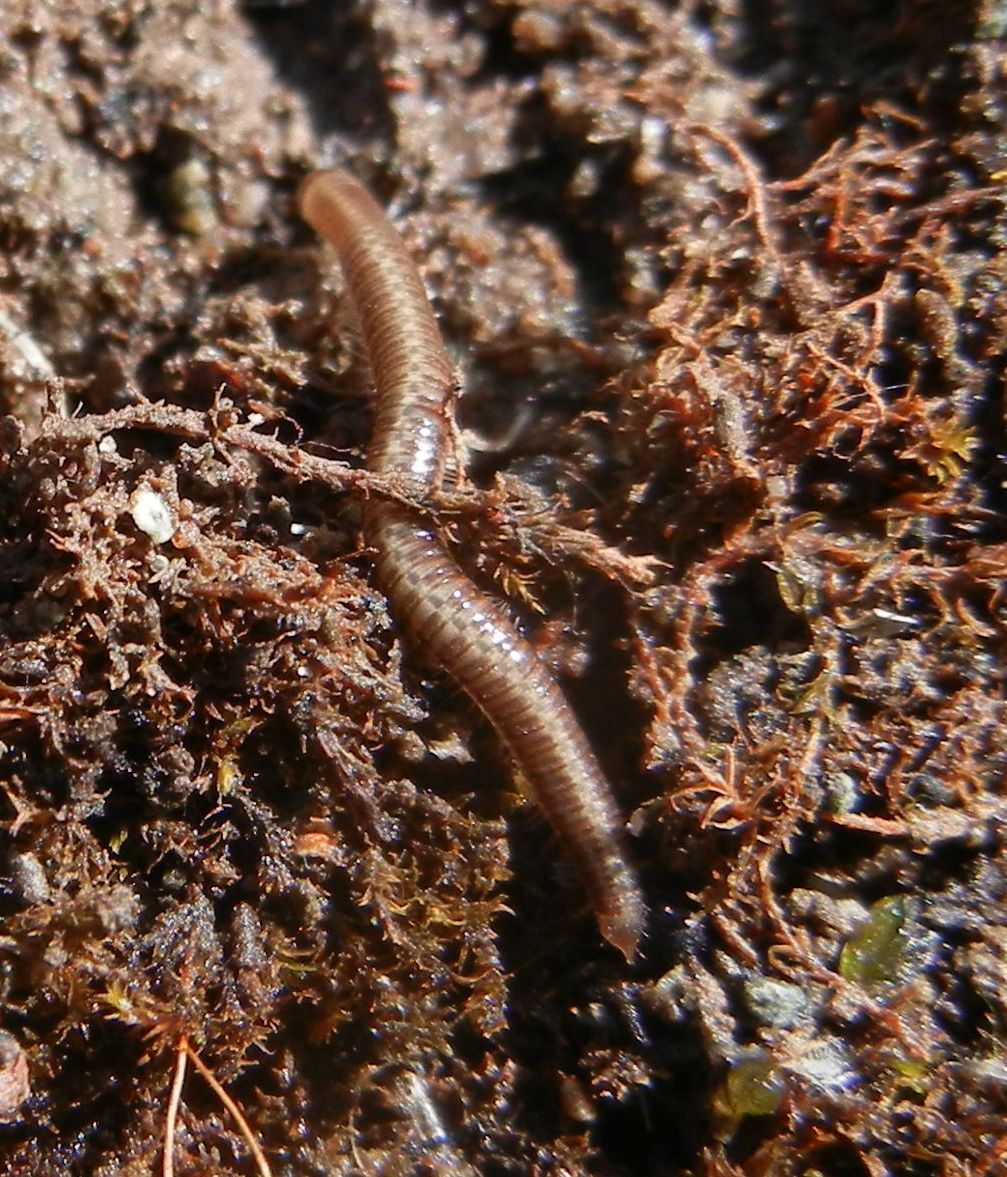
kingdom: Animalia
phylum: Arthropoda
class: Diplopoda
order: Julida
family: Julidae
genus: Leptoiulus
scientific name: Leptoiulus belgicus
